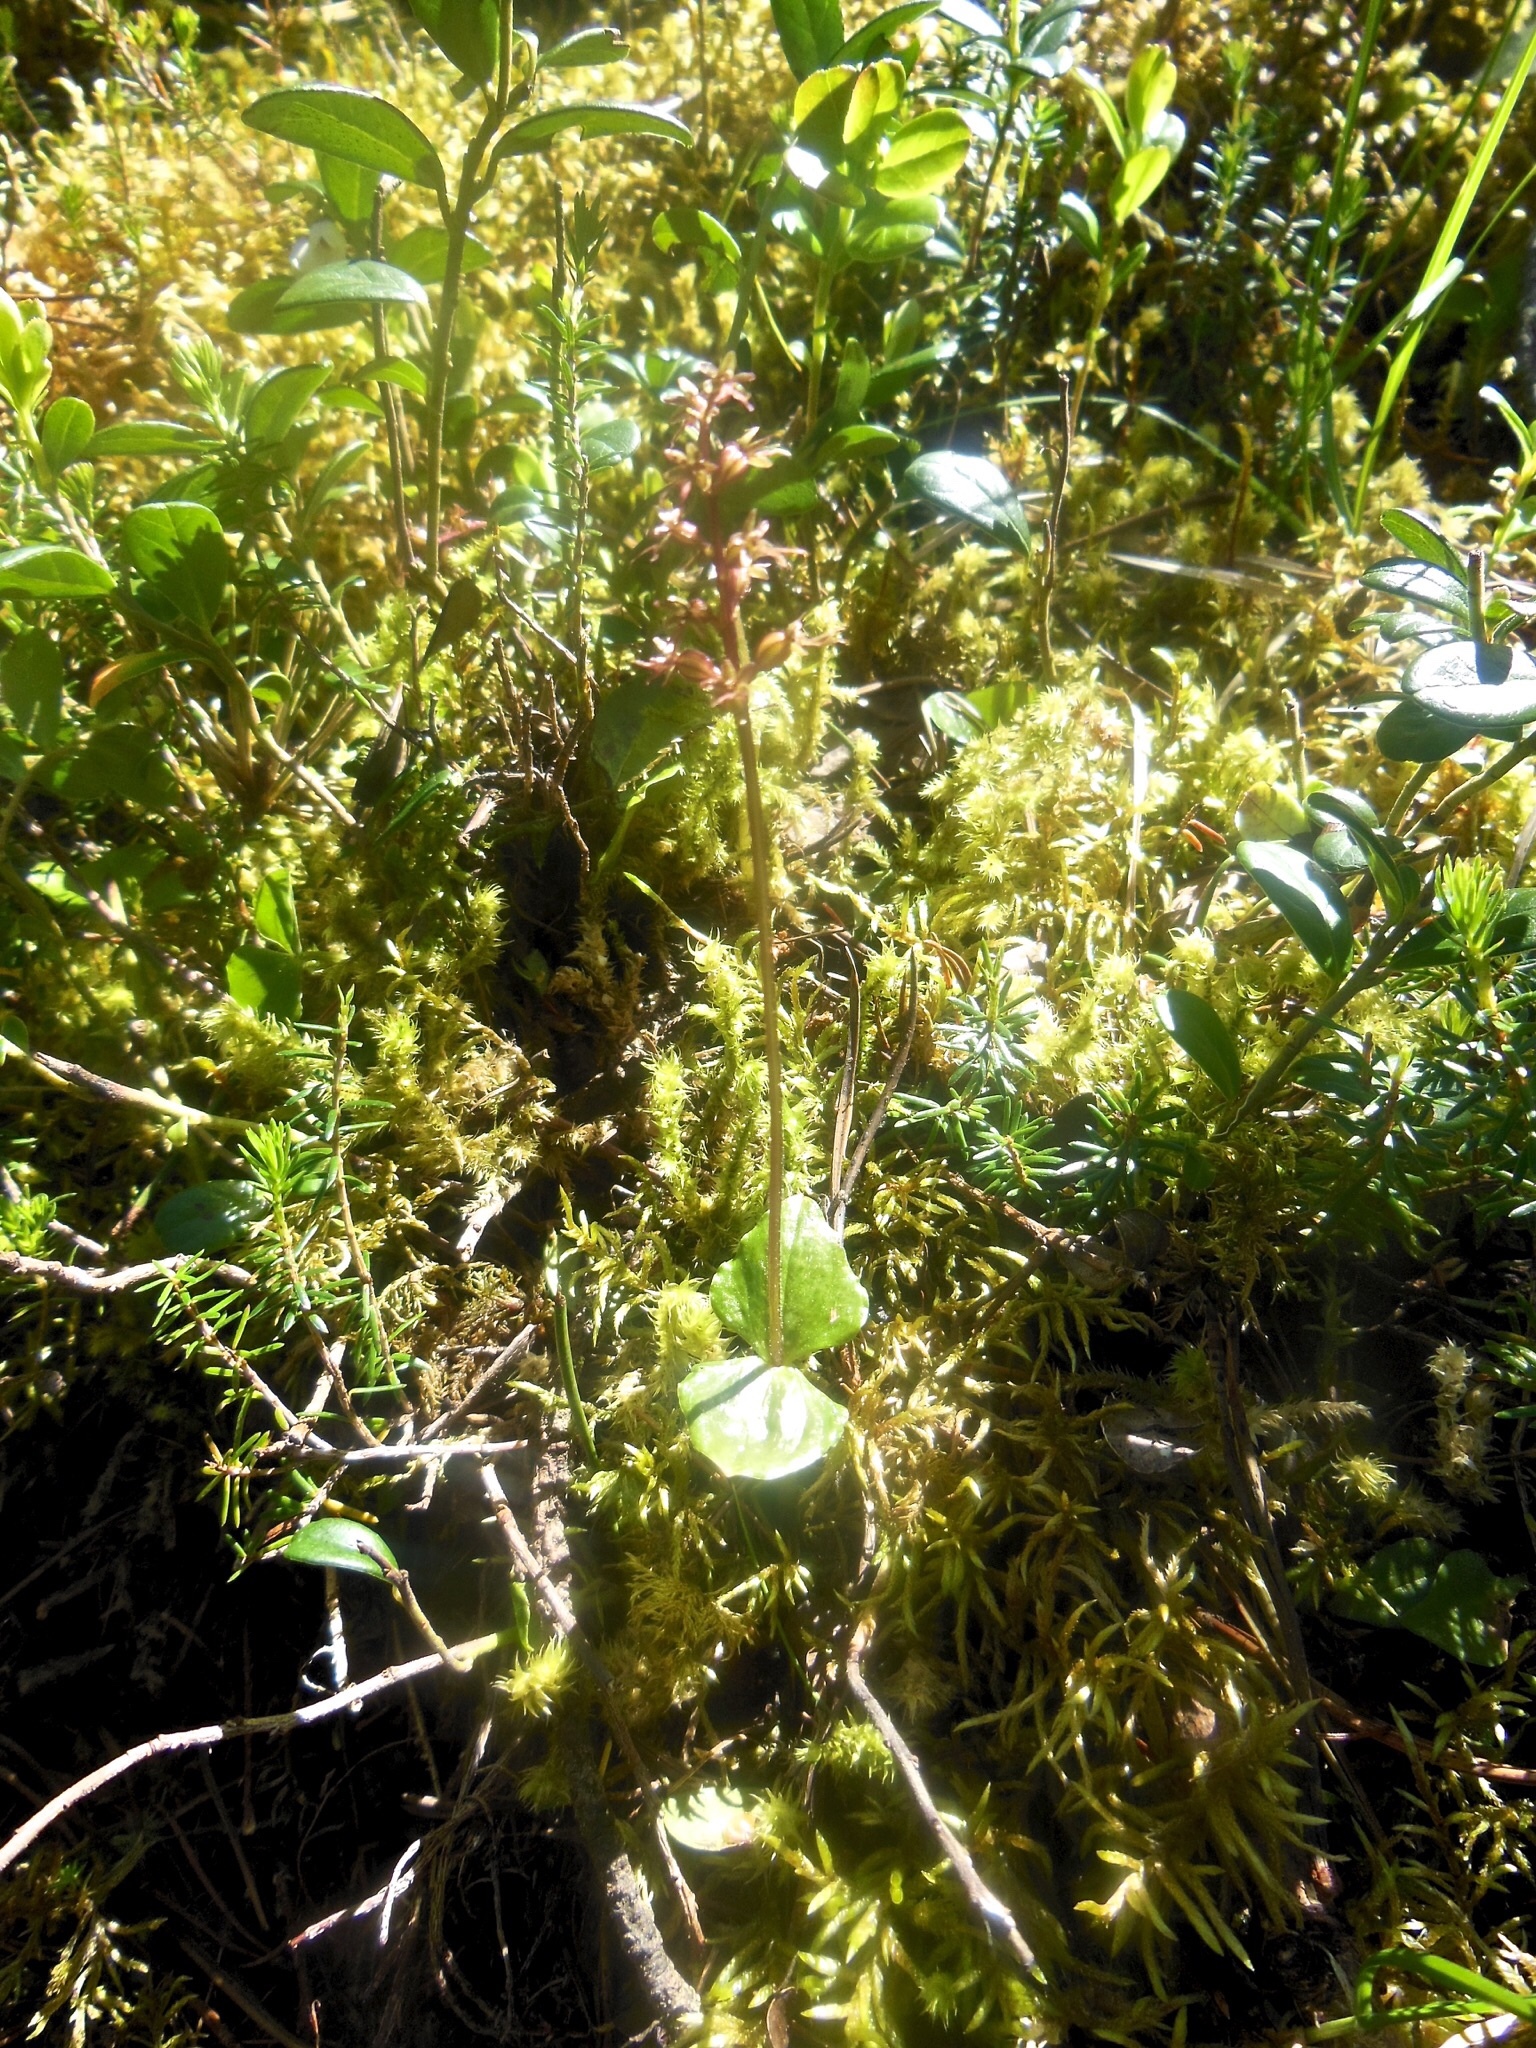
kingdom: Plantae
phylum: Tracheophyta
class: Liliopsida
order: Asparagales
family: Orchidaceae
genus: Neottia
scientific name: Neottia cordata
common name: Lesser twayblade
